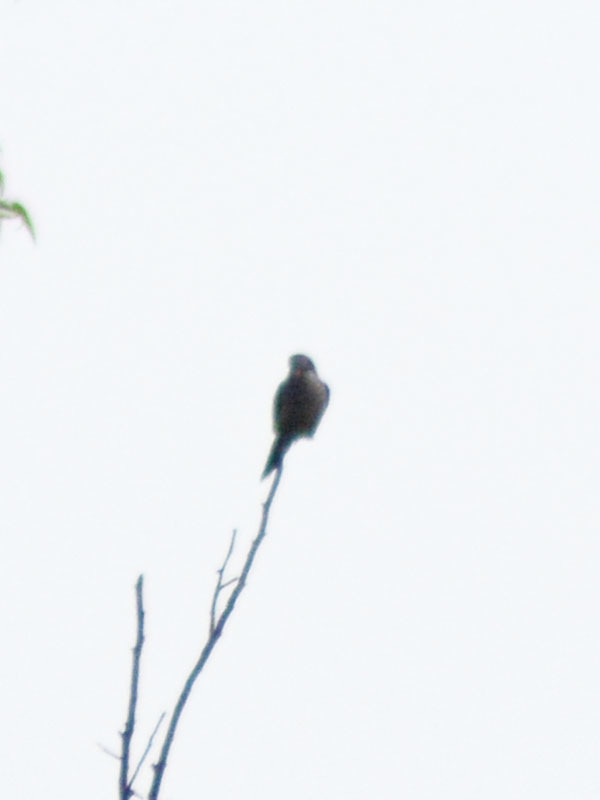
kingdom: Animalia
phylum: Chordata
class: Aves
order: Psittaciformes
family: Psittacidae
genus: Myiopsitta
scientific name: Myiopsitta monachus
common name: Monk parakeet
